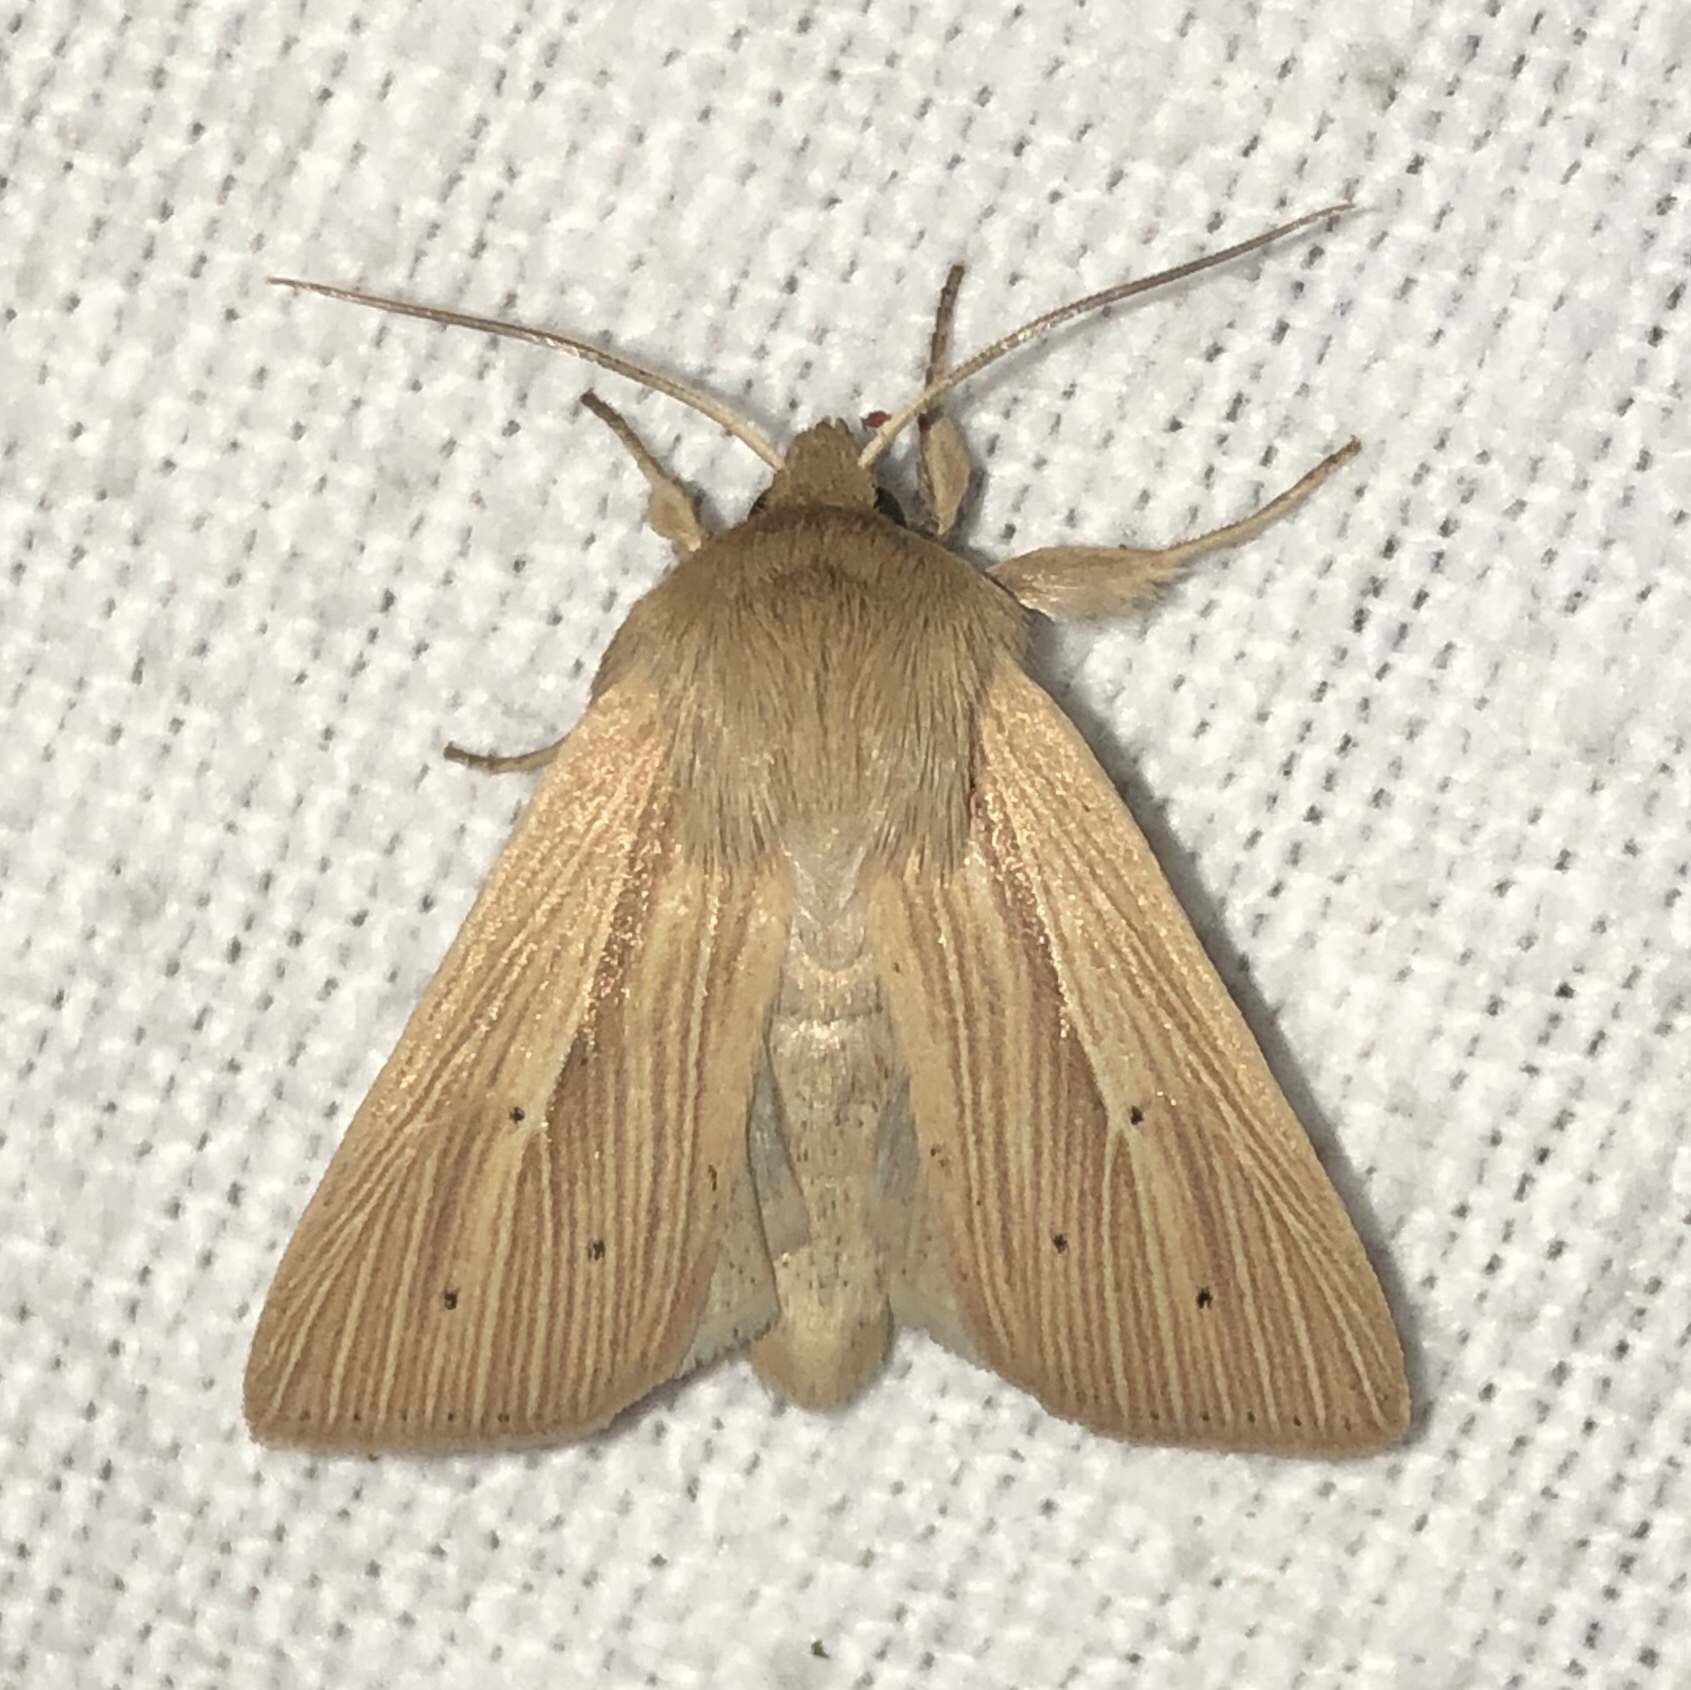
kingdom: Animalia
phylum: Arthropoda
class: Insecta
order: Lepidoptera
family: Noctuidae
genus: Mythimna
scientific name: Mythimna oxygala
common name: Lesser wainscot
